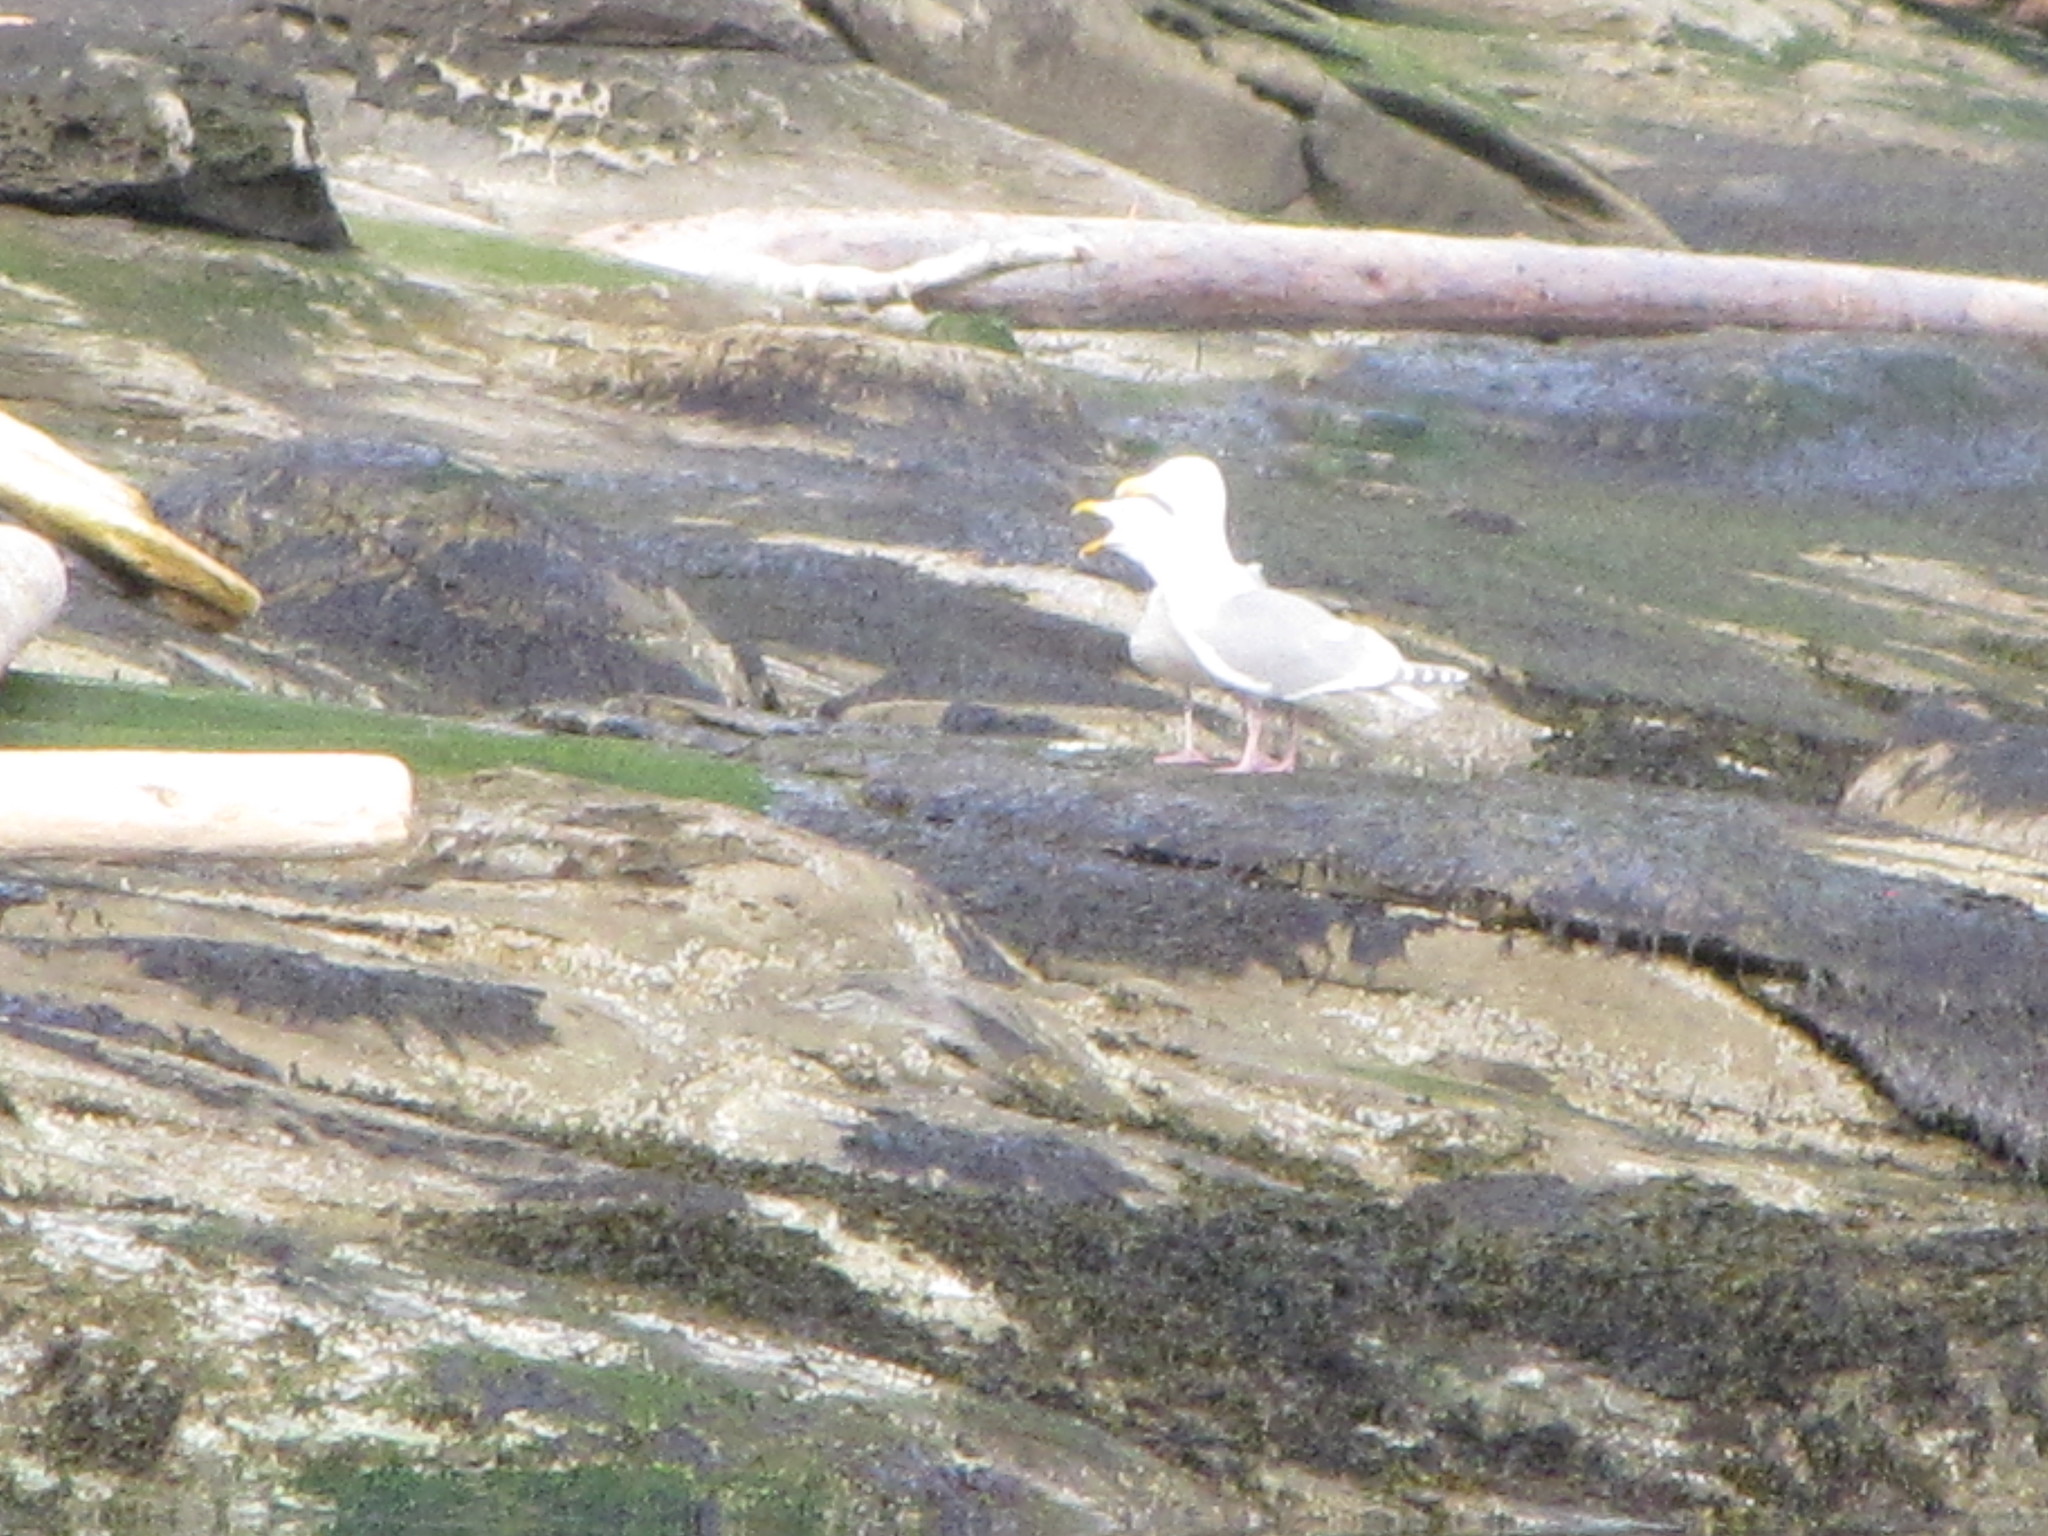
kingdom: Animalia
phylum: Chordata
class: Aves
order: Charadriiformes
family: Laridae
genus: Larus
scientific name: Larus glaucescens
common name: Glaucous-winged gull
